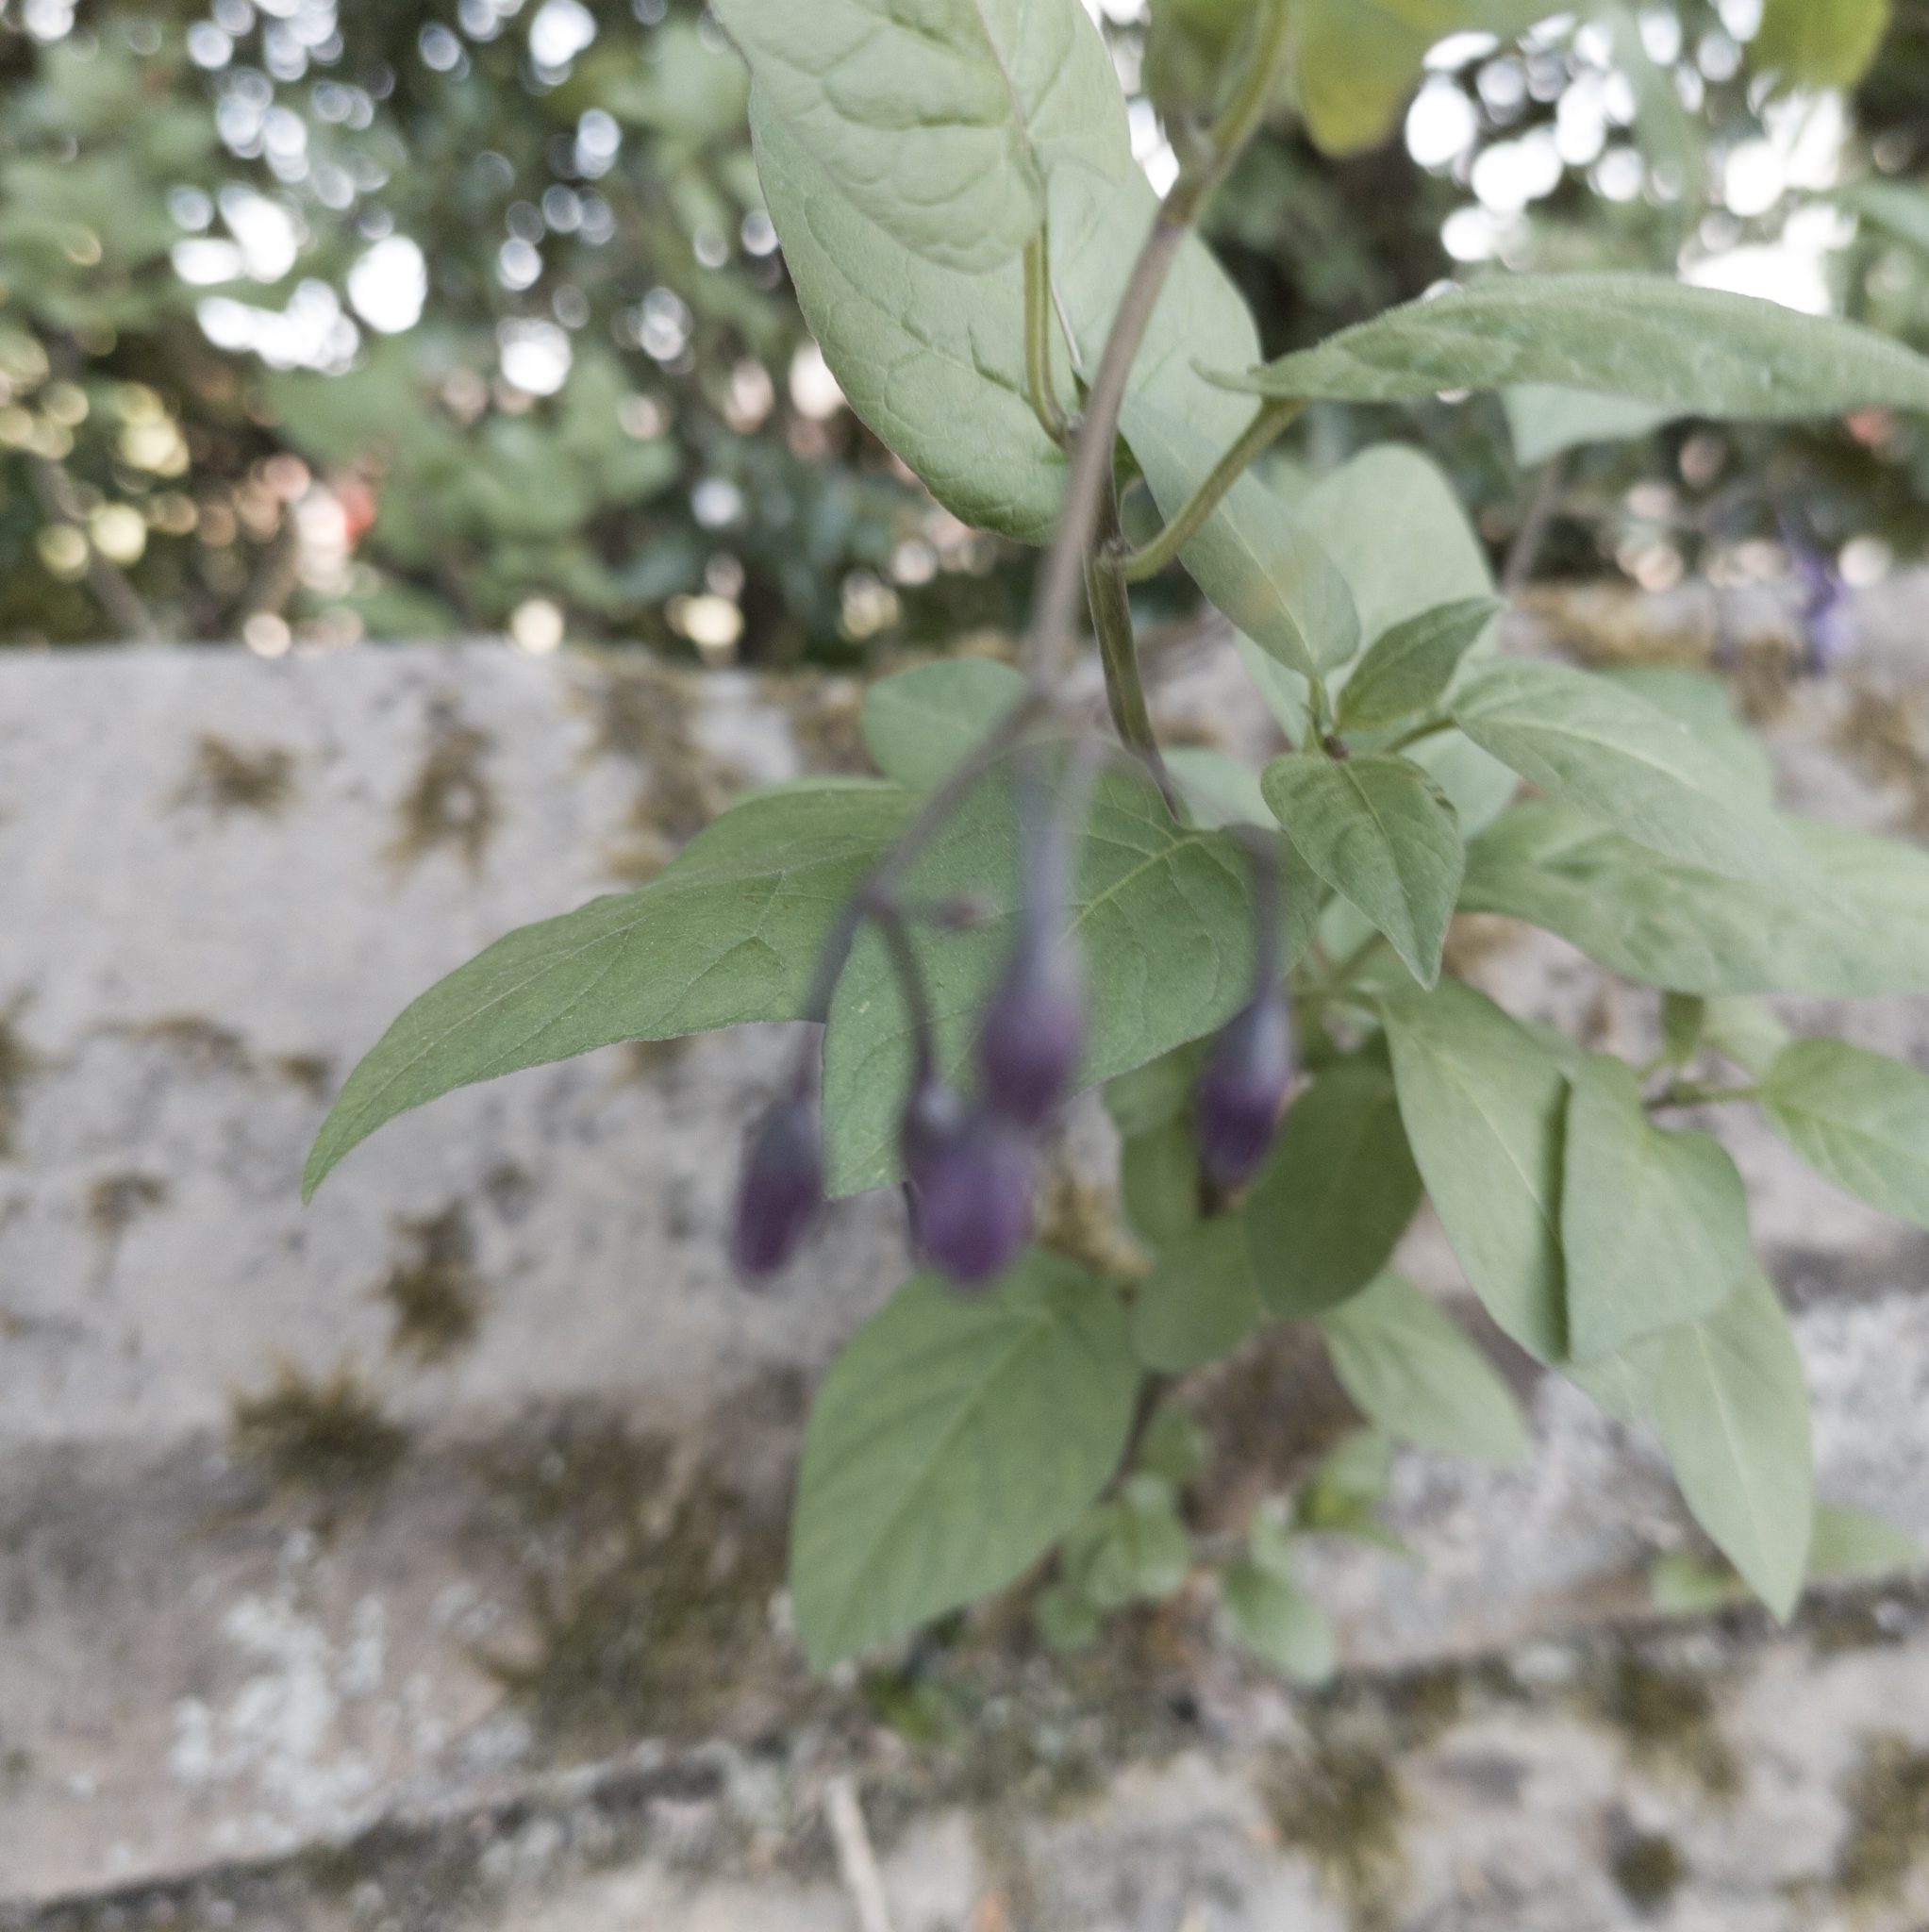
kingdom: Plantae
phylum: Tracheophyta
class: Magnoliopsida
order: Solanales
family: Solanaceae
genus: Solanum
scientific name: Solanum dulcamara
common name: Climbing nightshade
